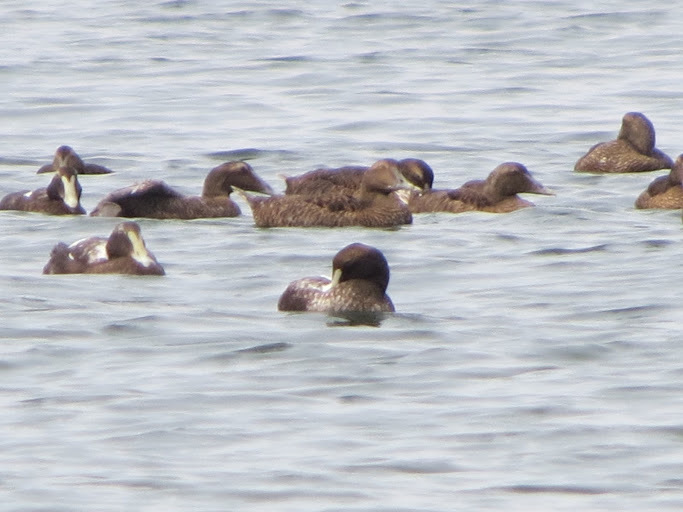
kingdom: Animalia
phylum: Chordata
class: Aves
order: Anseriformes
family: Anatidae
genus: Somateria
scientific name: Somateria mollissima
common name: Common eider
